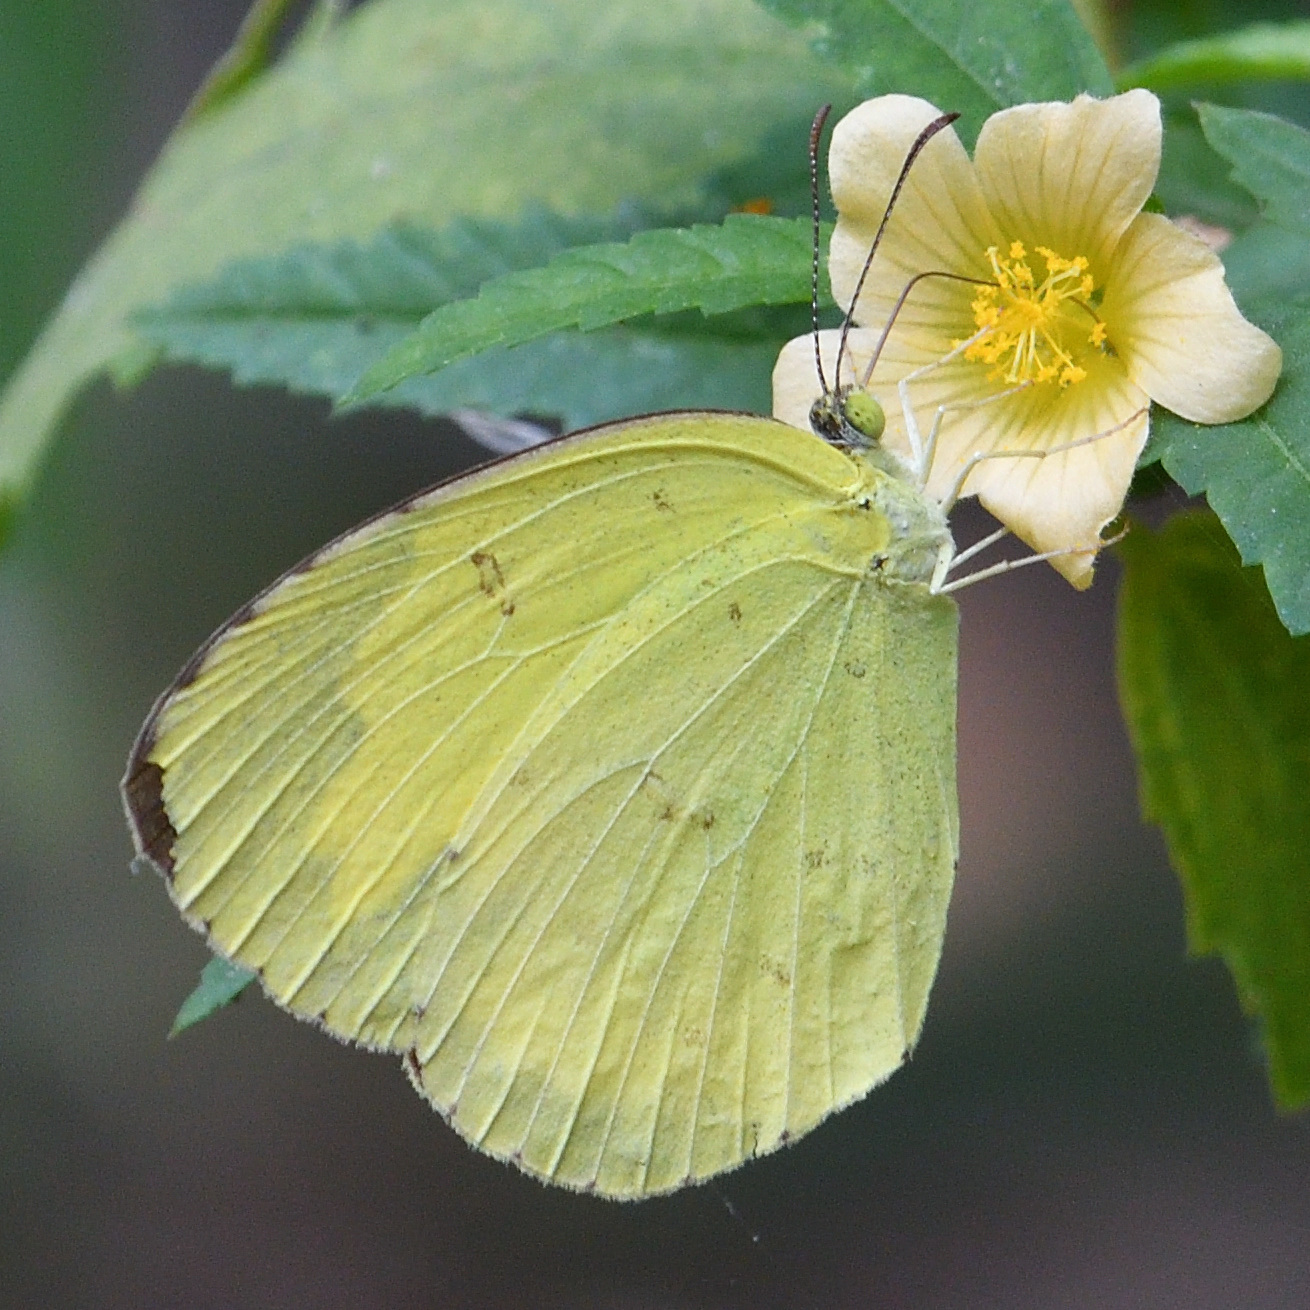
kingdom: Animalia
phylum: Arthropoda
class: Insecta
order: Lepidoptera
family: Pieridae
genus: Eurema
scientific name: Eurema hecabe
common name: Pale grass yellow
